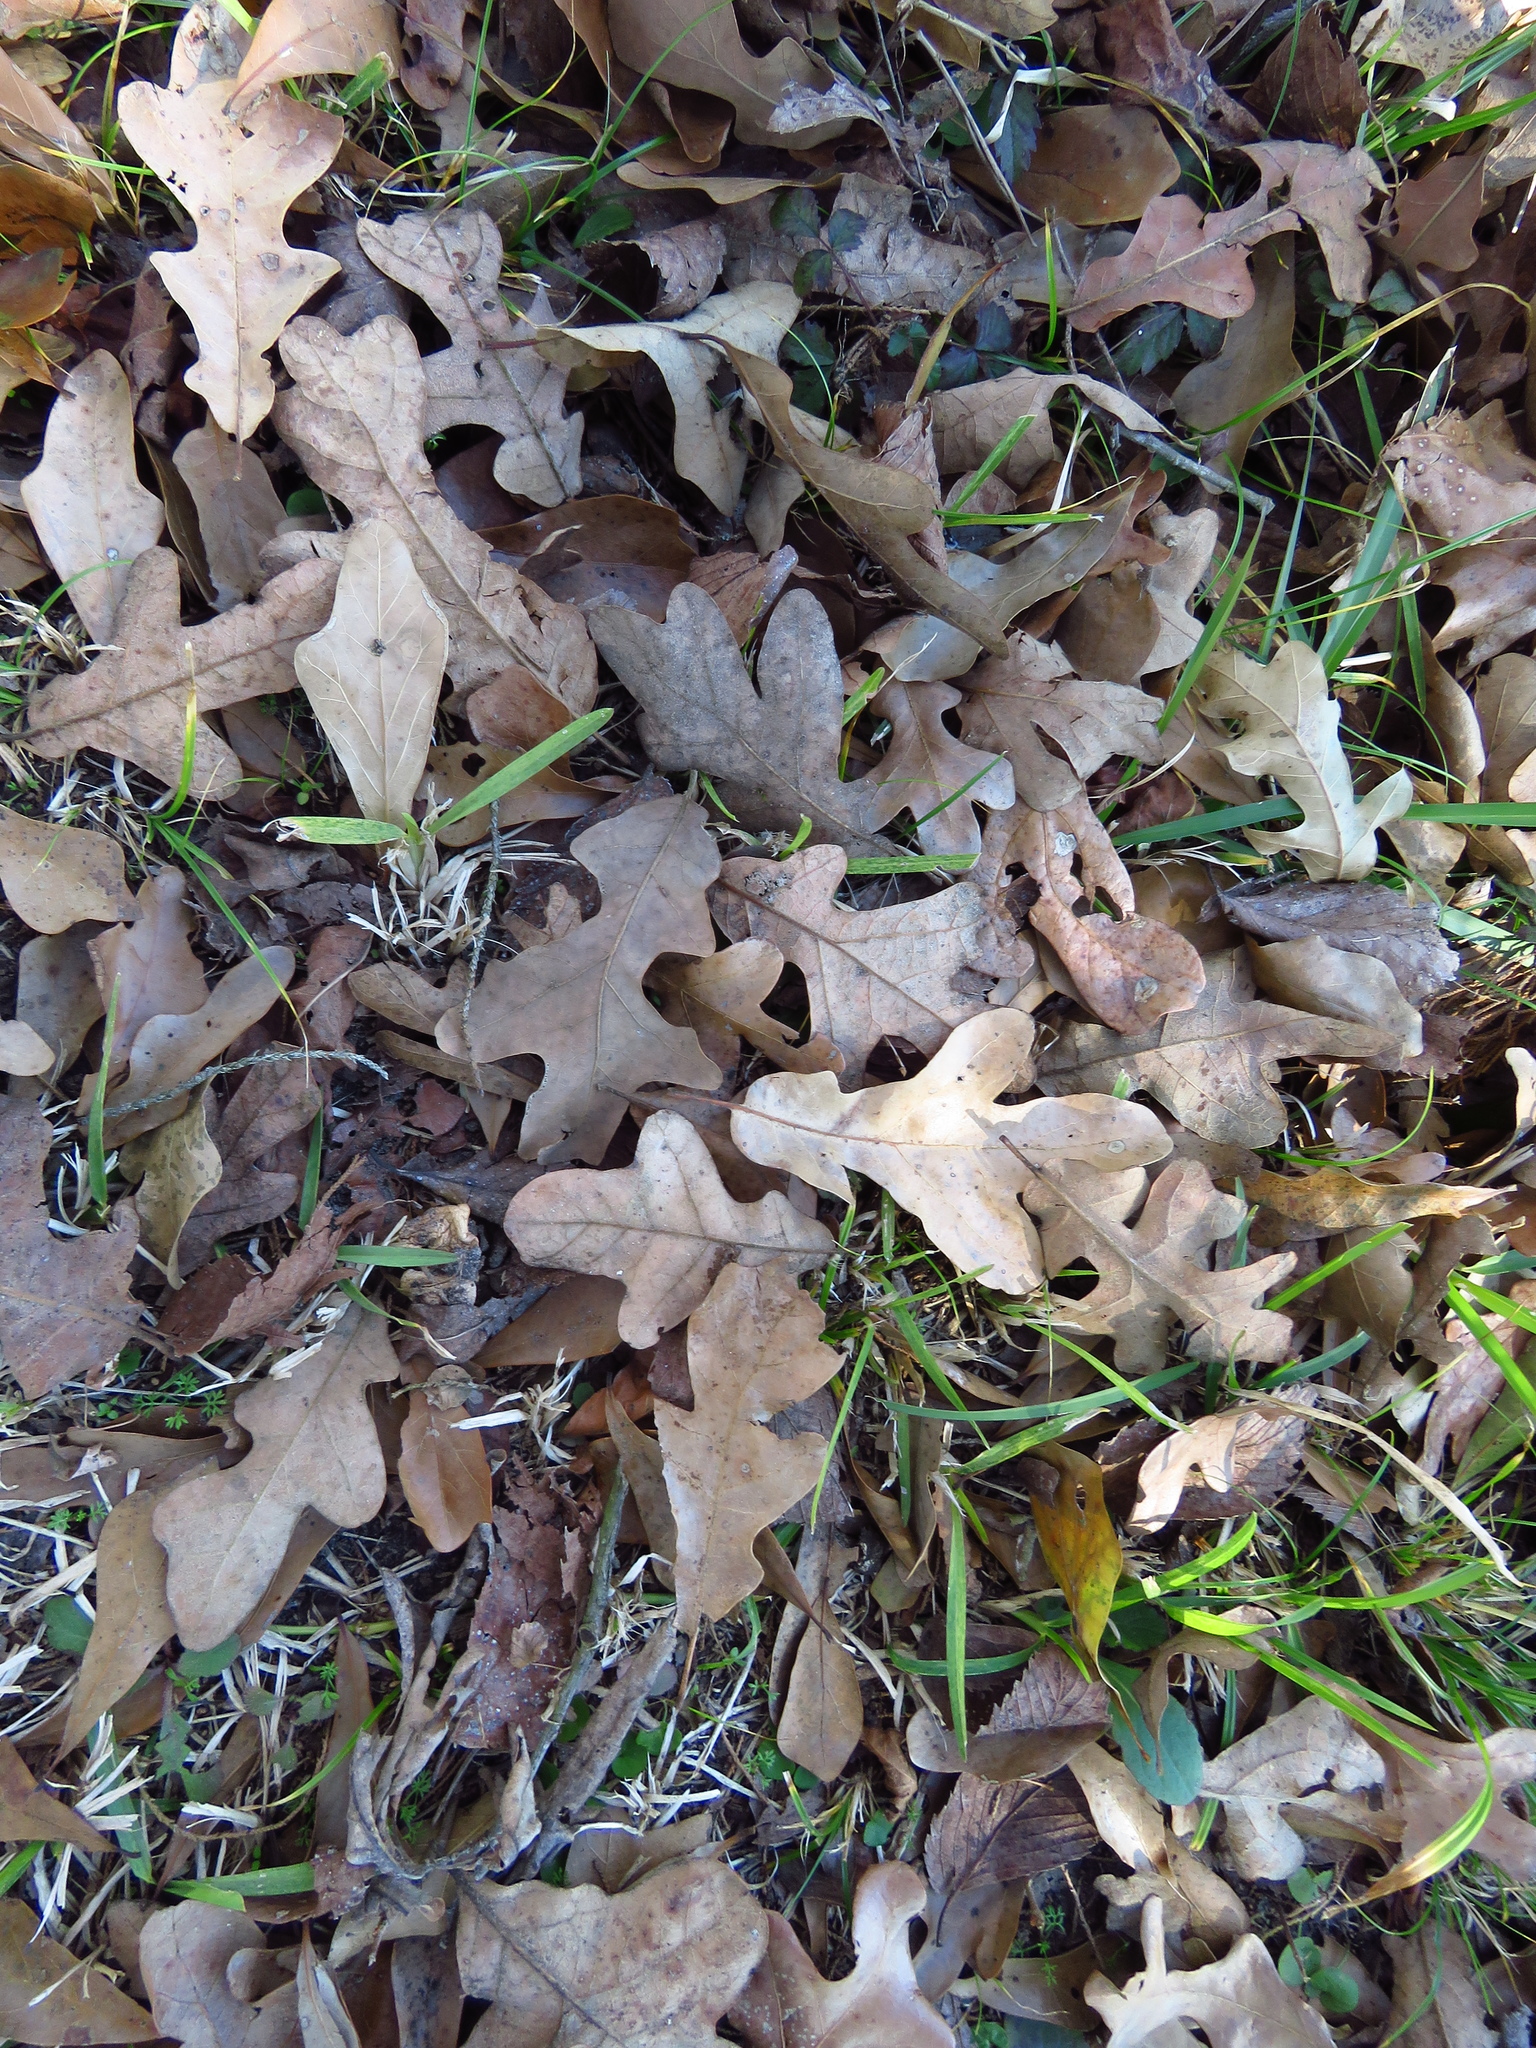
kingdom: Animalia
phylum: Arthropoda
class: Insecta
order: Hymenoptera
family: Cynipidae
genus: Neuroterus
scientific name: Neuroterus quercusverrucarum
